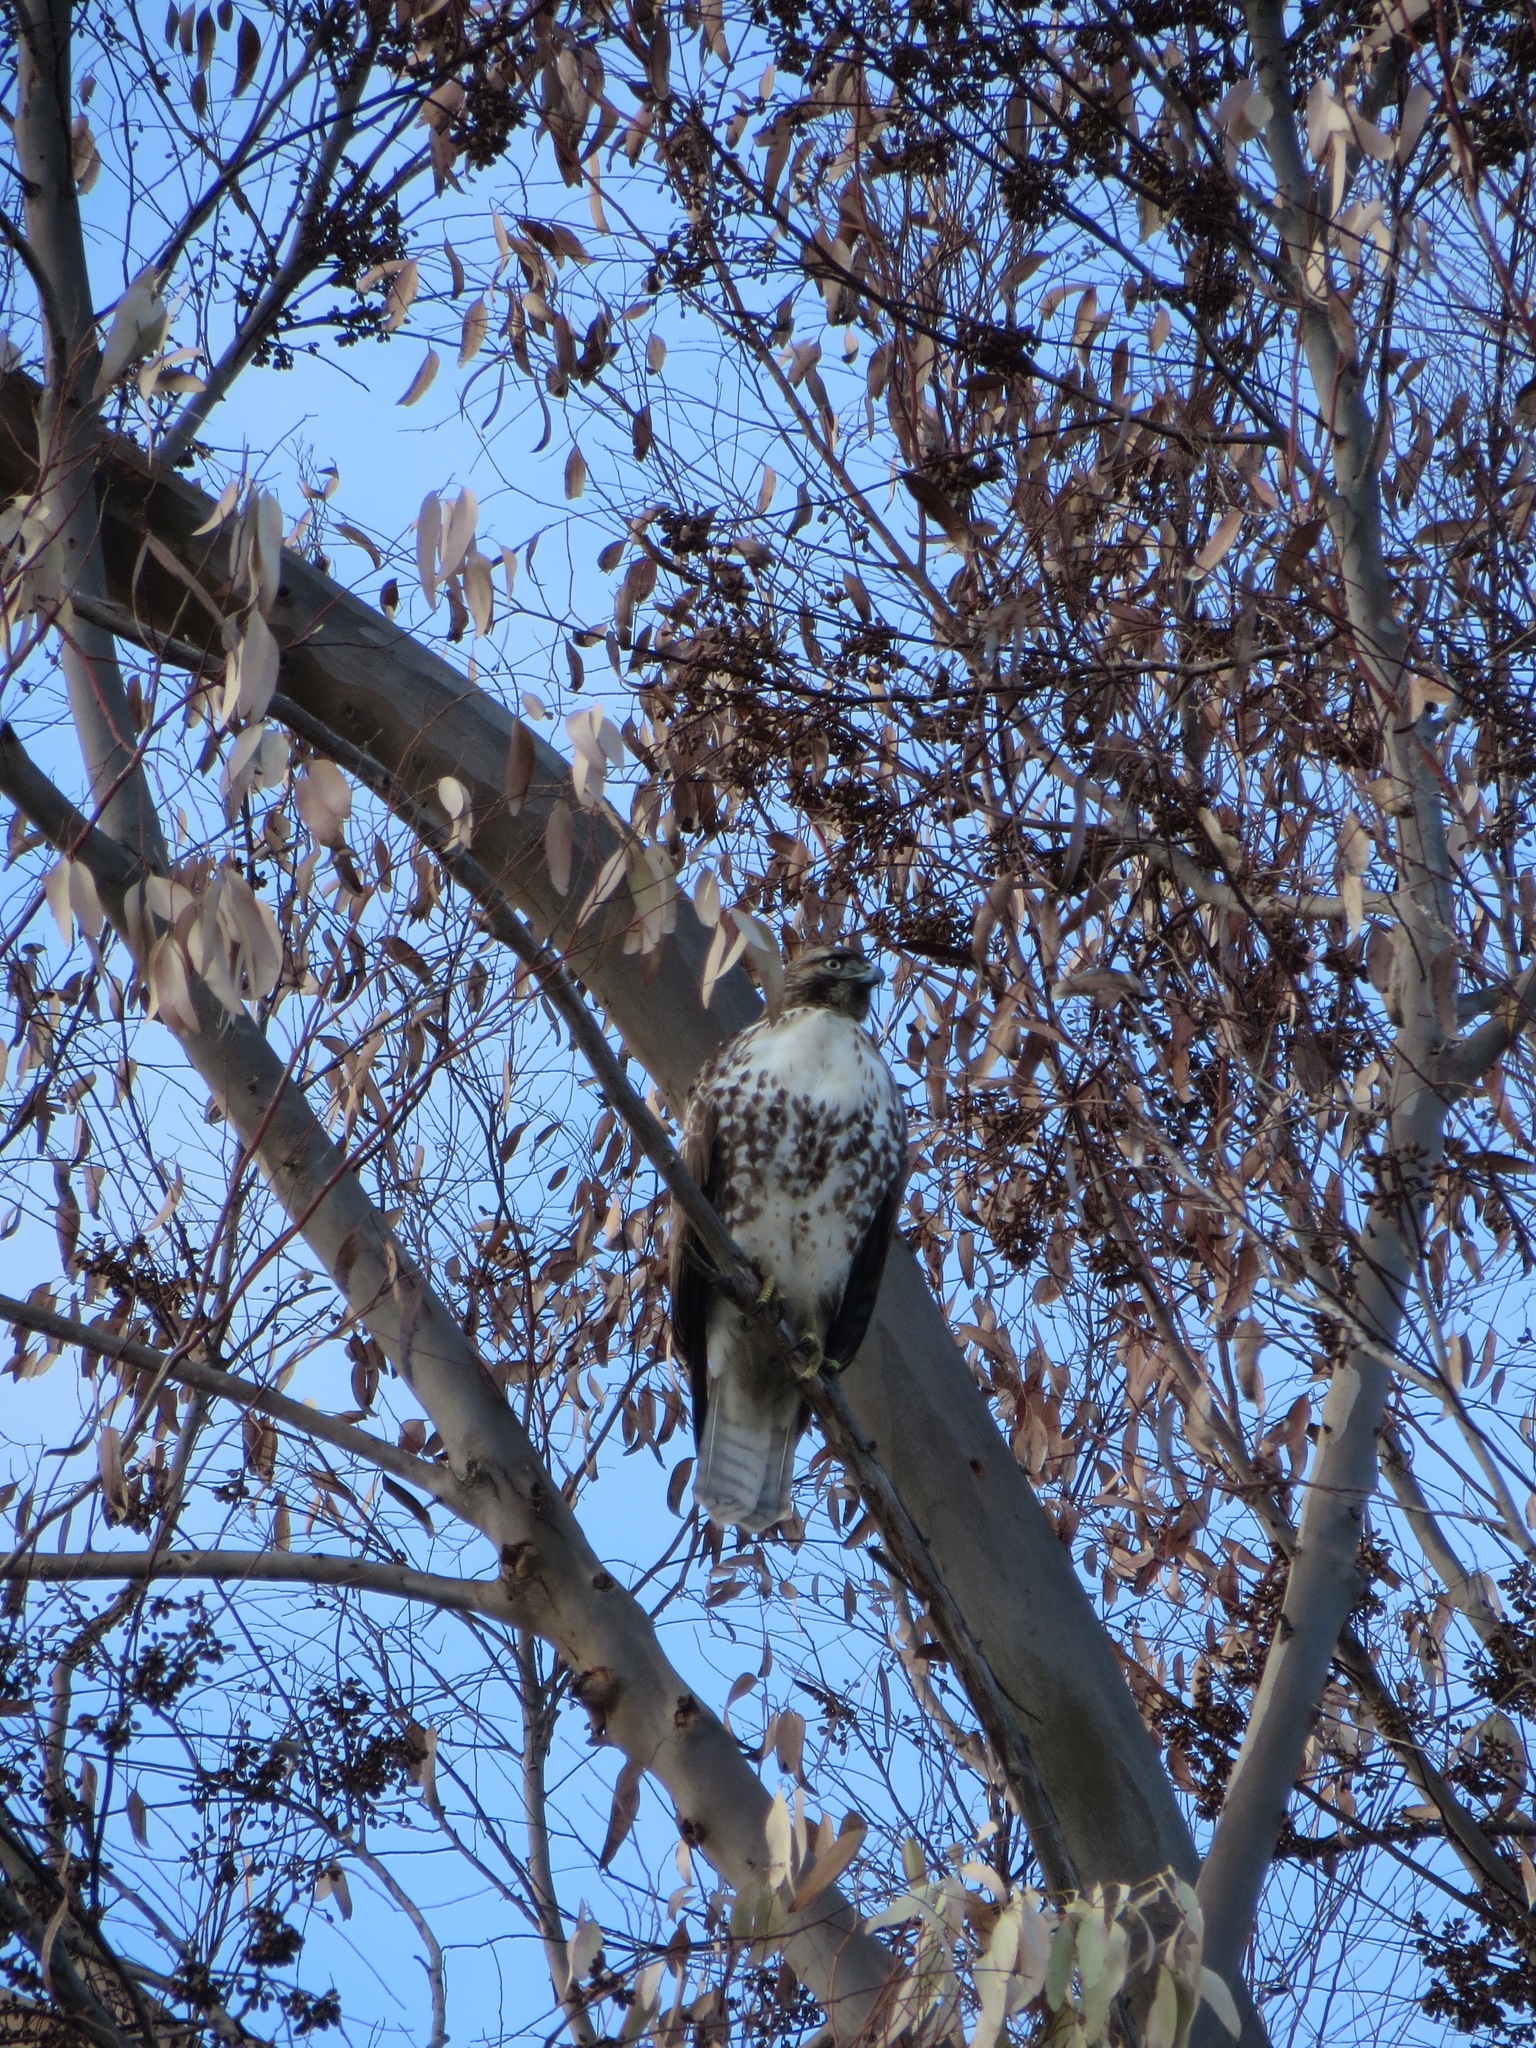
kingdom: Animalia
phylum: Chordata
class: Aves
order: Accipitriformes
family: Accipitridae
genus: Buteo
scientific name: Buteo jamaicensis
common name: Red-tailed hawk
